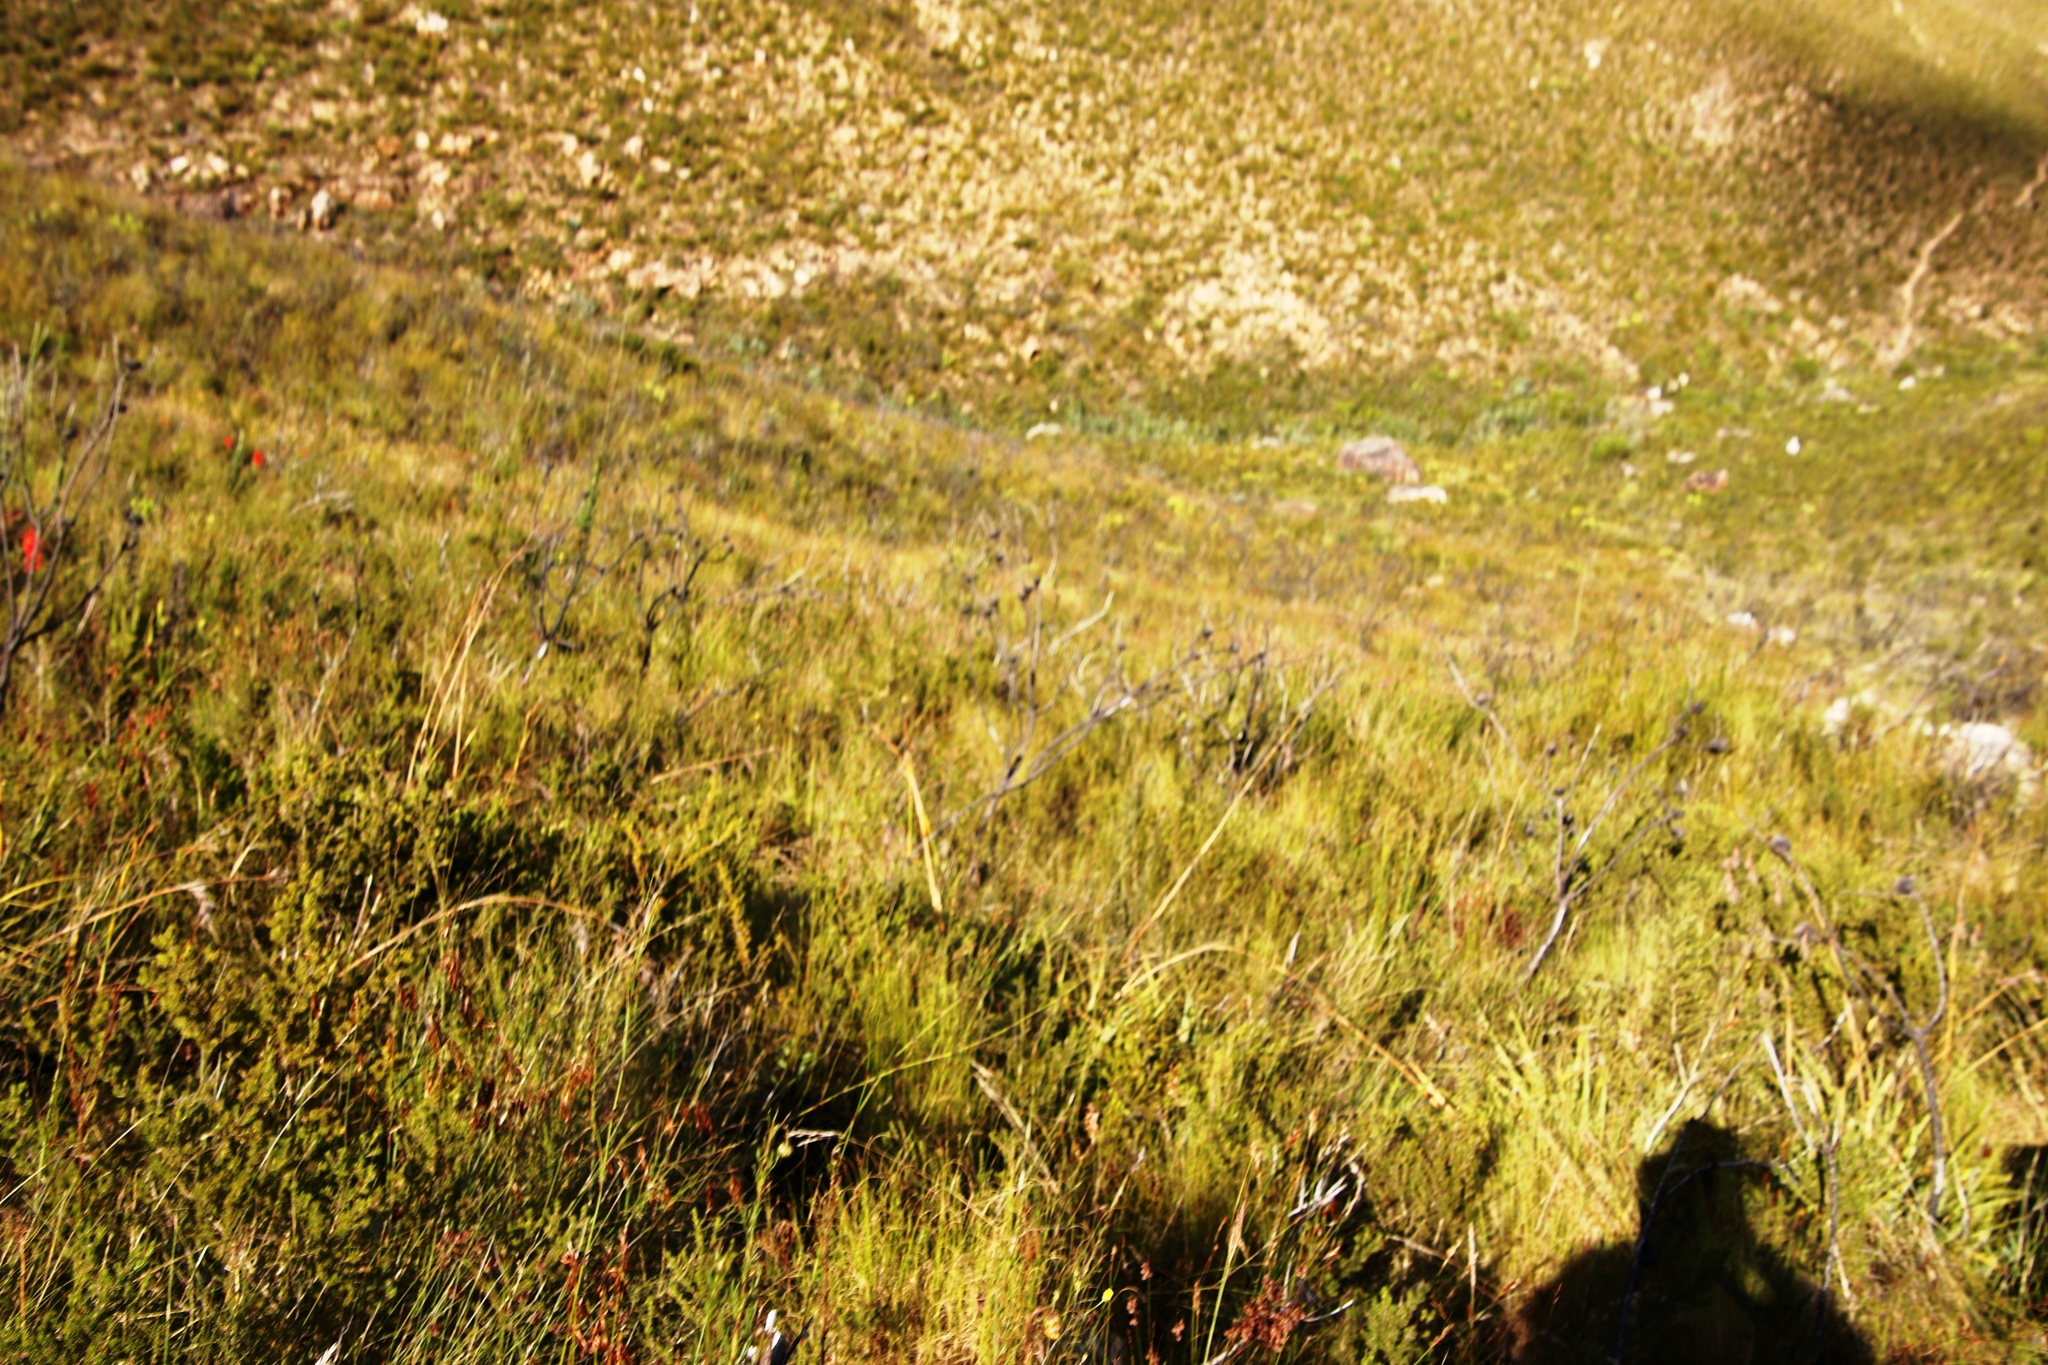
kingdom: Plantae
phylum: Tracheophyta
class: Magnoliopsida
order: Proteales
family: Proteaceae
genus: Protea
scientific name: Protea neriifolia
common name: Blue sugarbush
